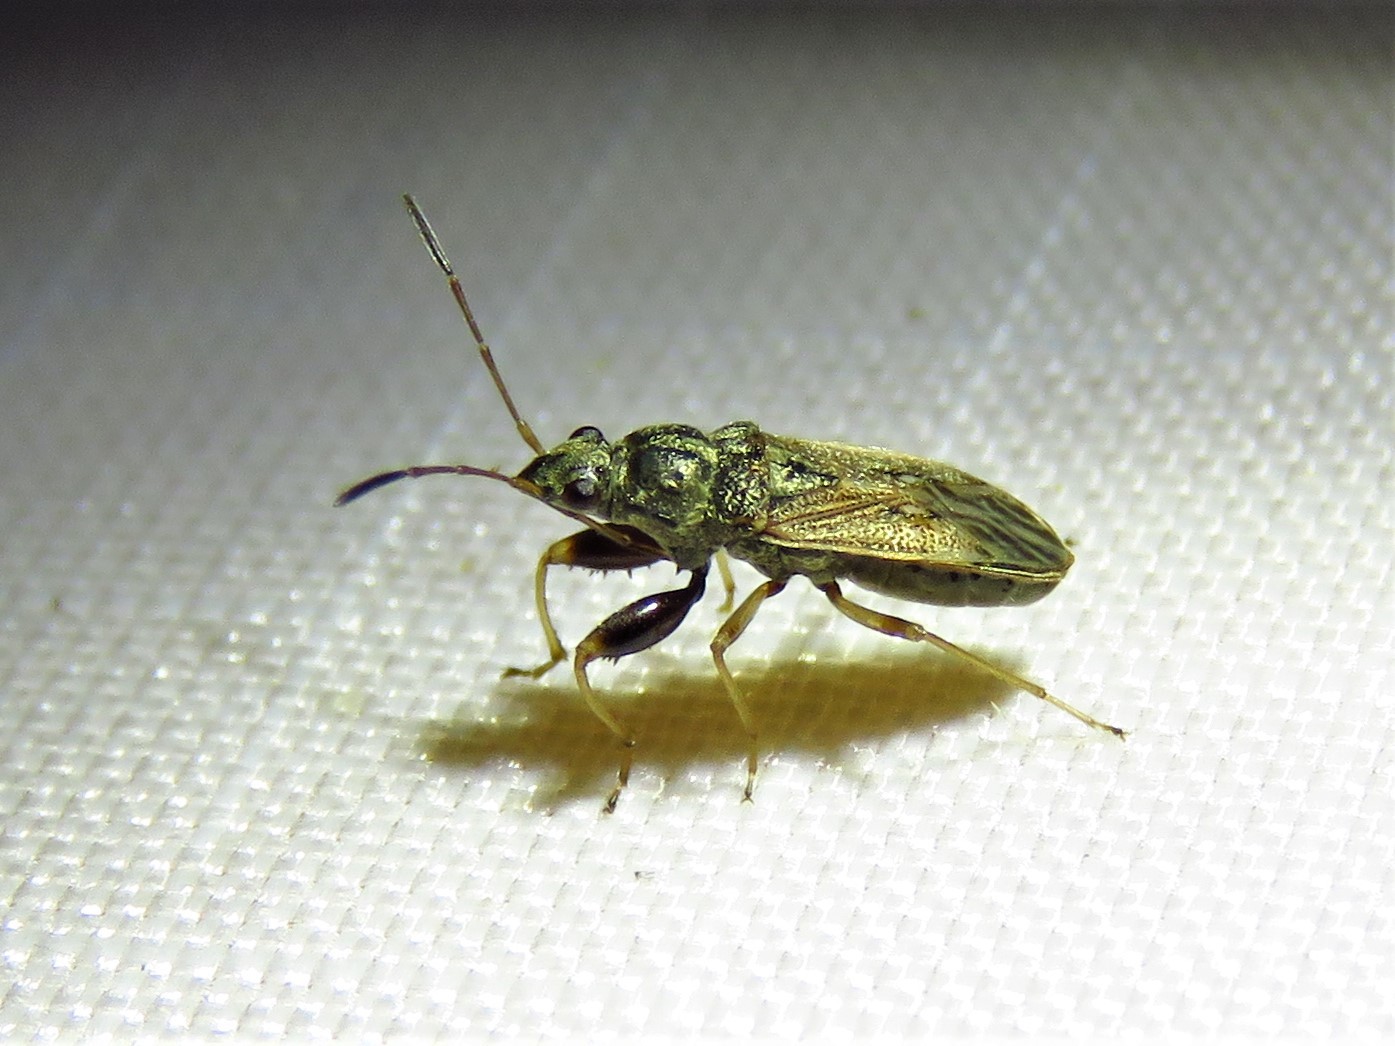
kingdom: Animalia
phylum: Arthropoda
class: Insecta
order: Hemiptera
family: Rhyparochromidae
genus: Pseudopachybrachius
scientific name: Pseudopachybrachius basalis
